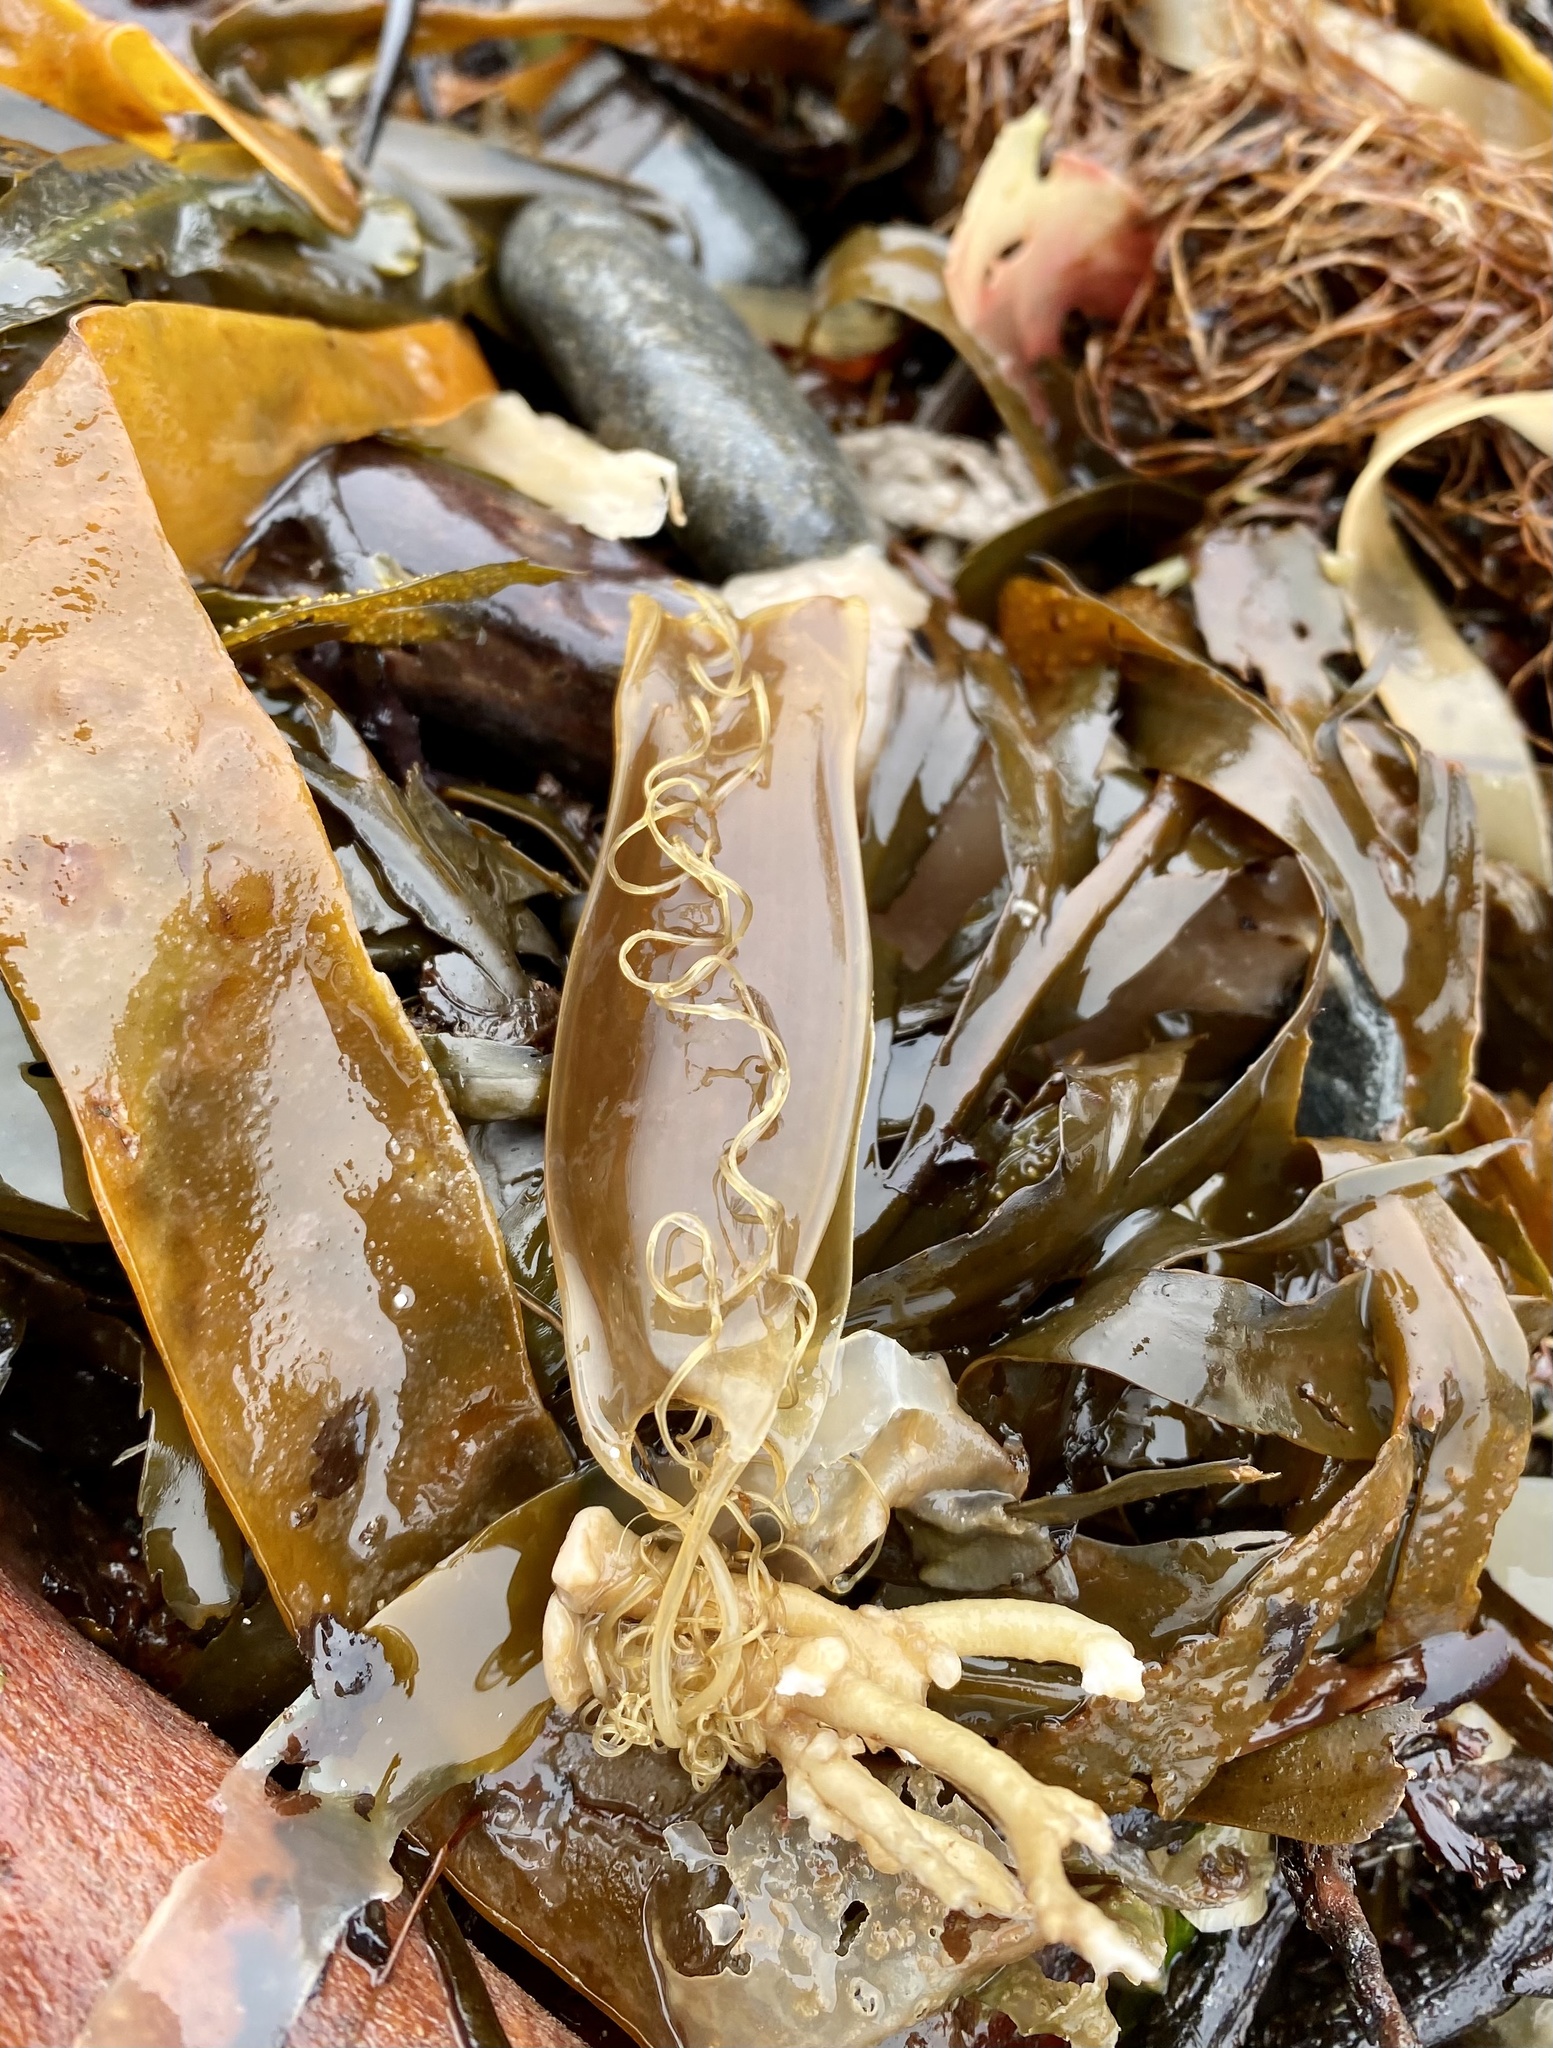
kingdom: Animalia
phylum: Chordata
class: Elasmobranchii
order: Carcharhiniformes
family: Scyliorhinidae
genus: Scyliorhinus
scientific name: Scyliorhinus canicula
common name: Lesser spotted dogfish
